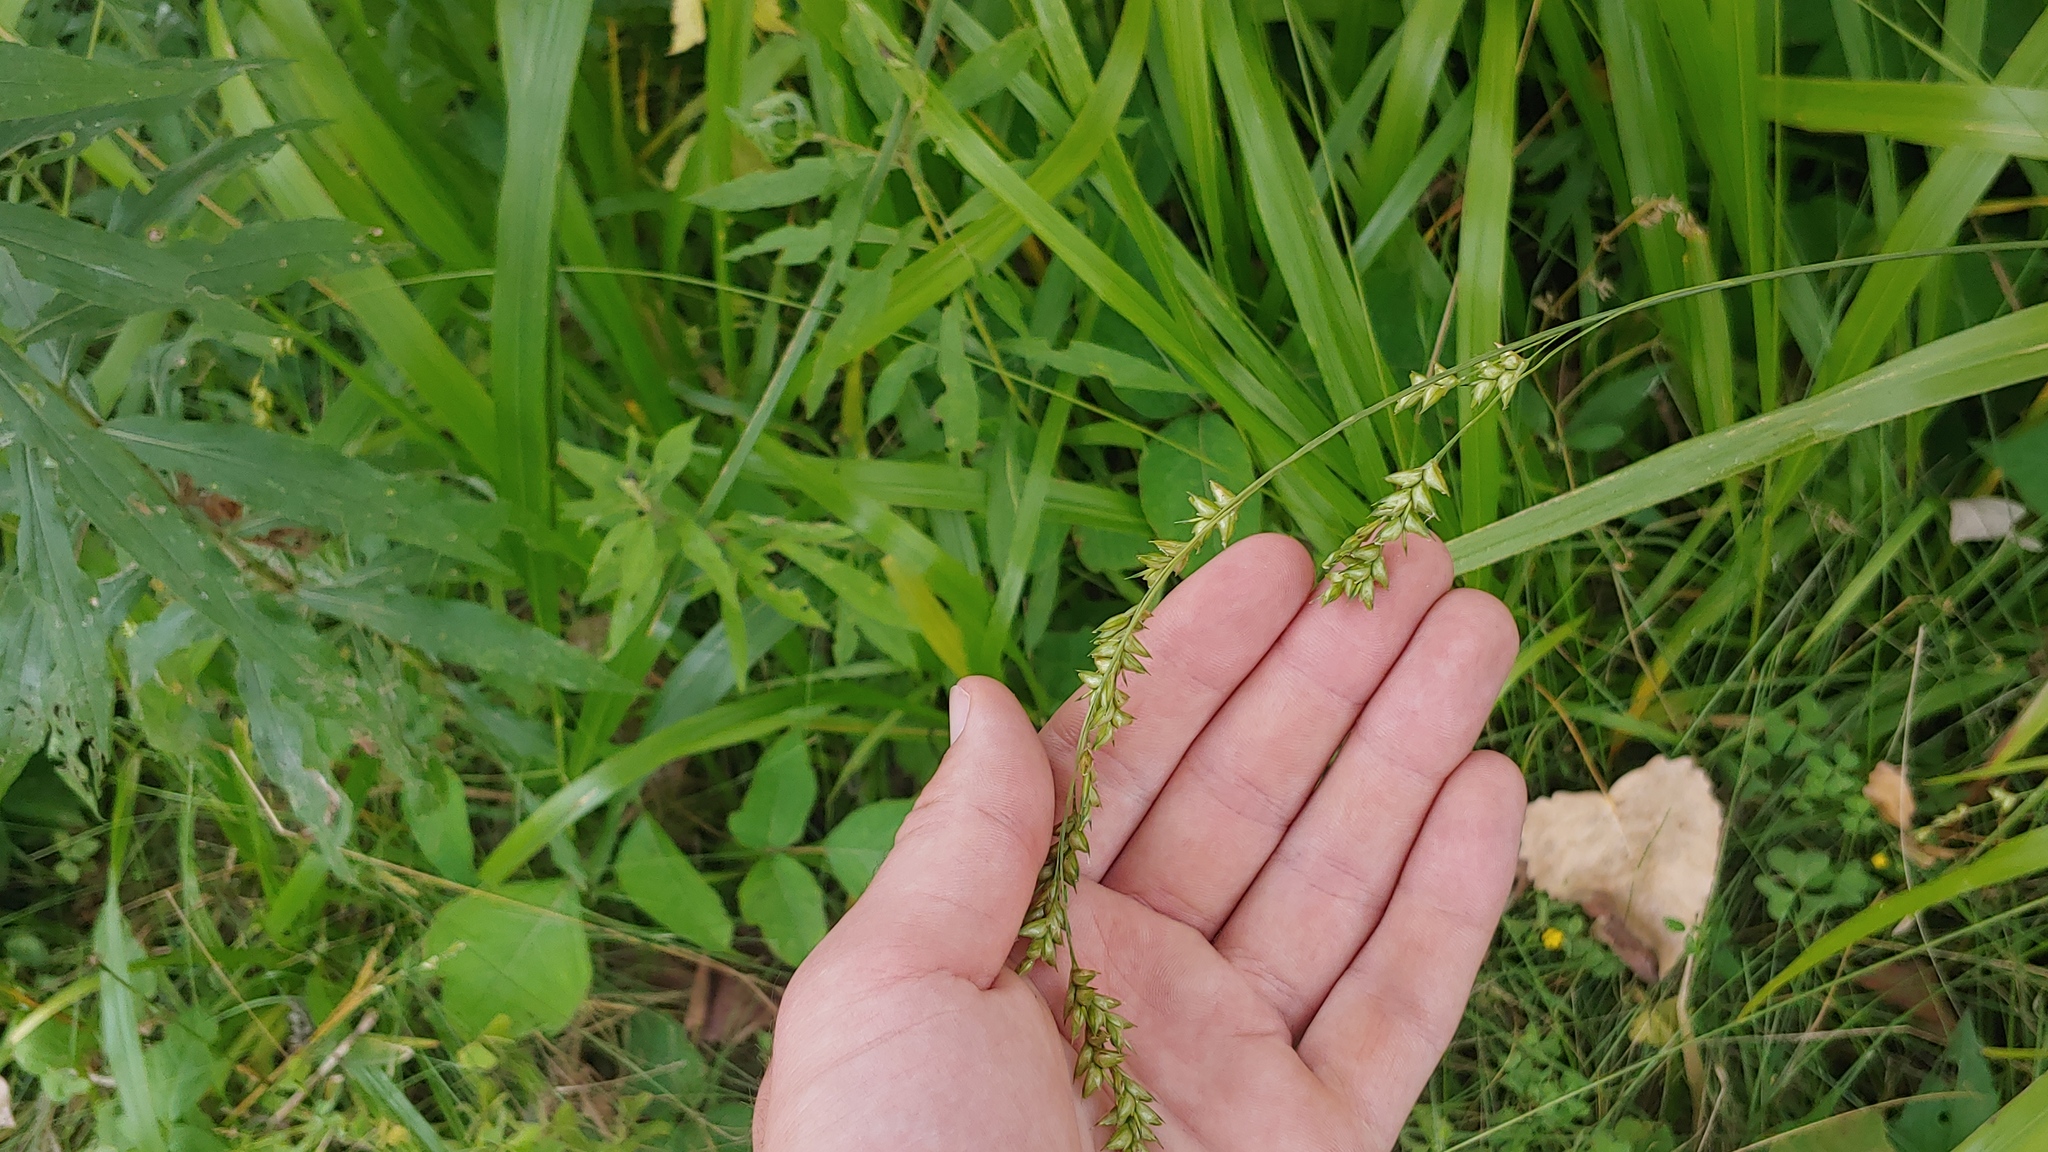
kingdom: Plantae
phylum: Tracheophyta
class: Liliopsida
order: Poales
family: Poaceae
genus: Diarrhena
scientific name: Diarrhena obovata
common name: Beakgrass
